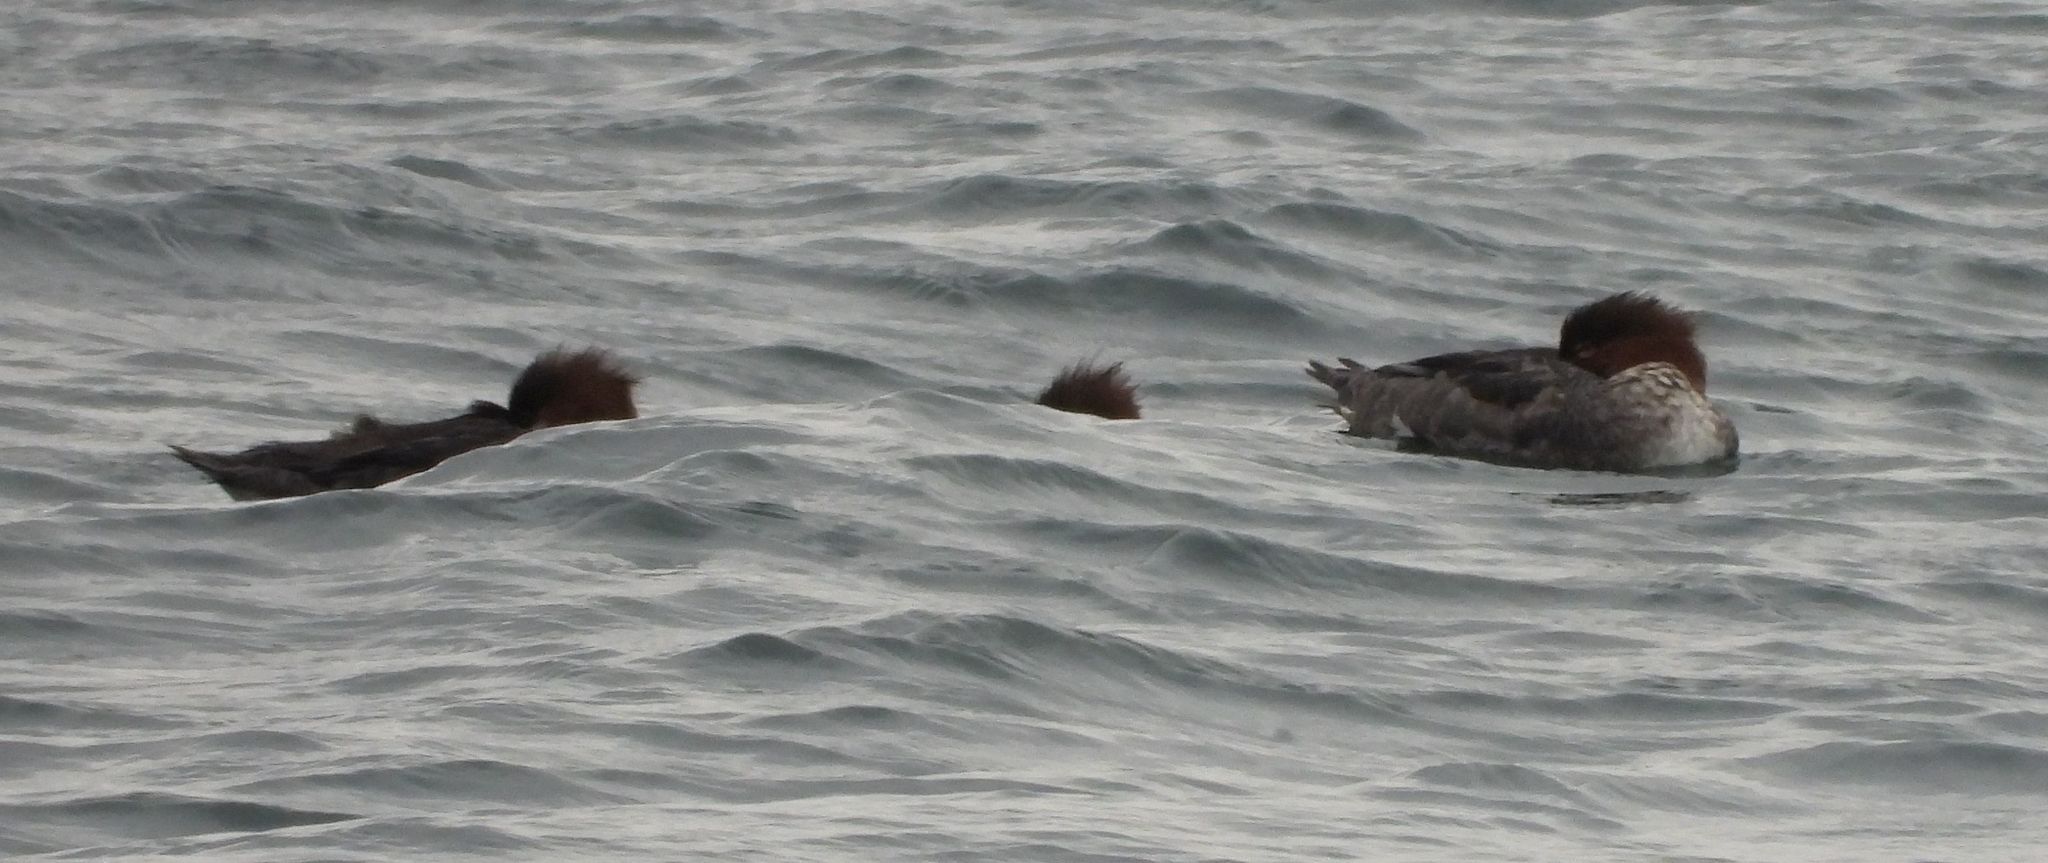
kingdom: Animalia
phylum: Chordata
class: Aves
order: Anseriformes
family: Anatidae
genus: Mergus
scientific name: Mergus serrator
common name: Red-breasted merganser
